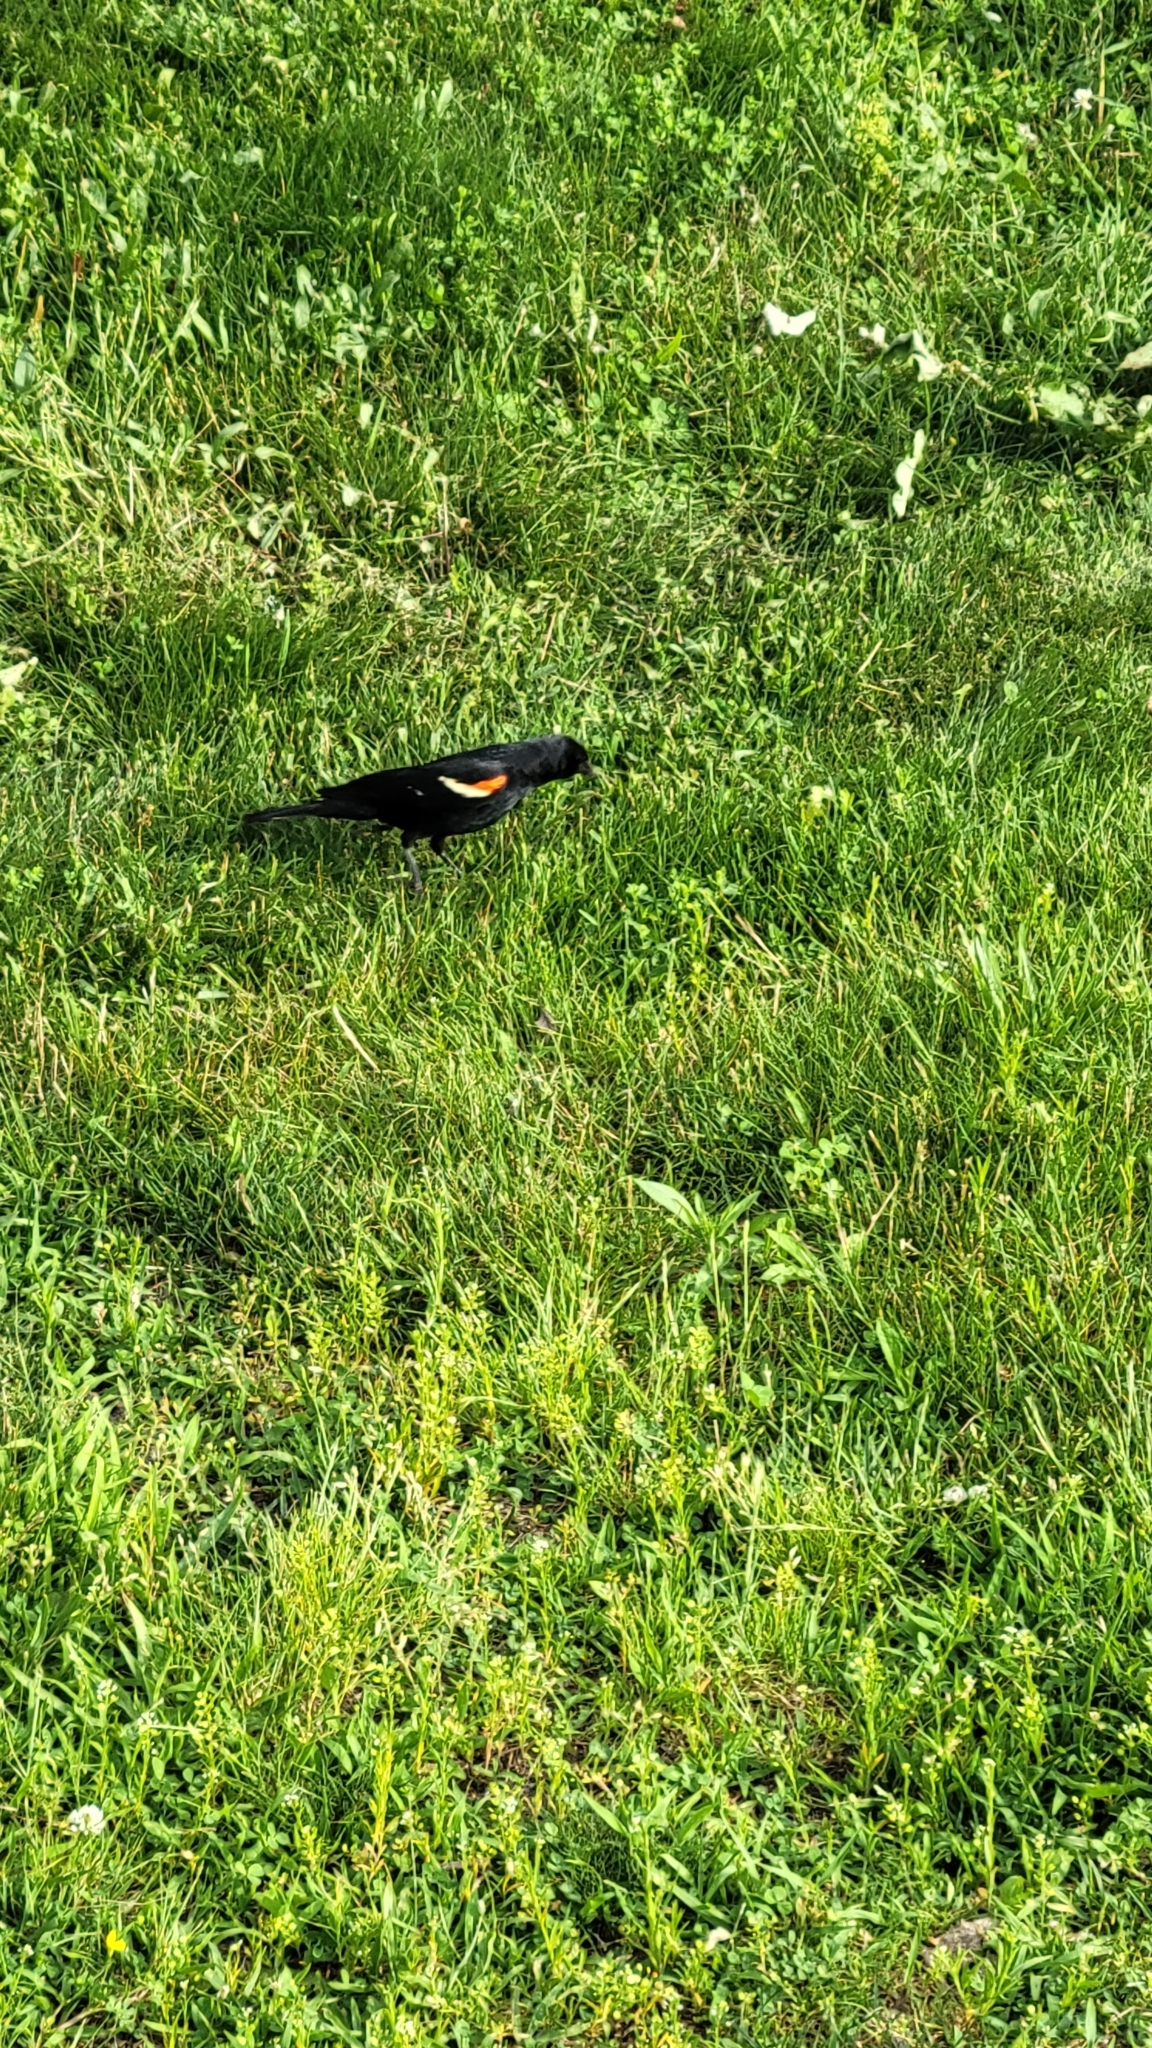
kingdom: Animalia
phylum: Chordata
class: Aves
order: Passeriformes
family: Icteridae
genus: Agelaius
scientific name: Agelaius phoeniceus
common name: Red-winged blackbird
